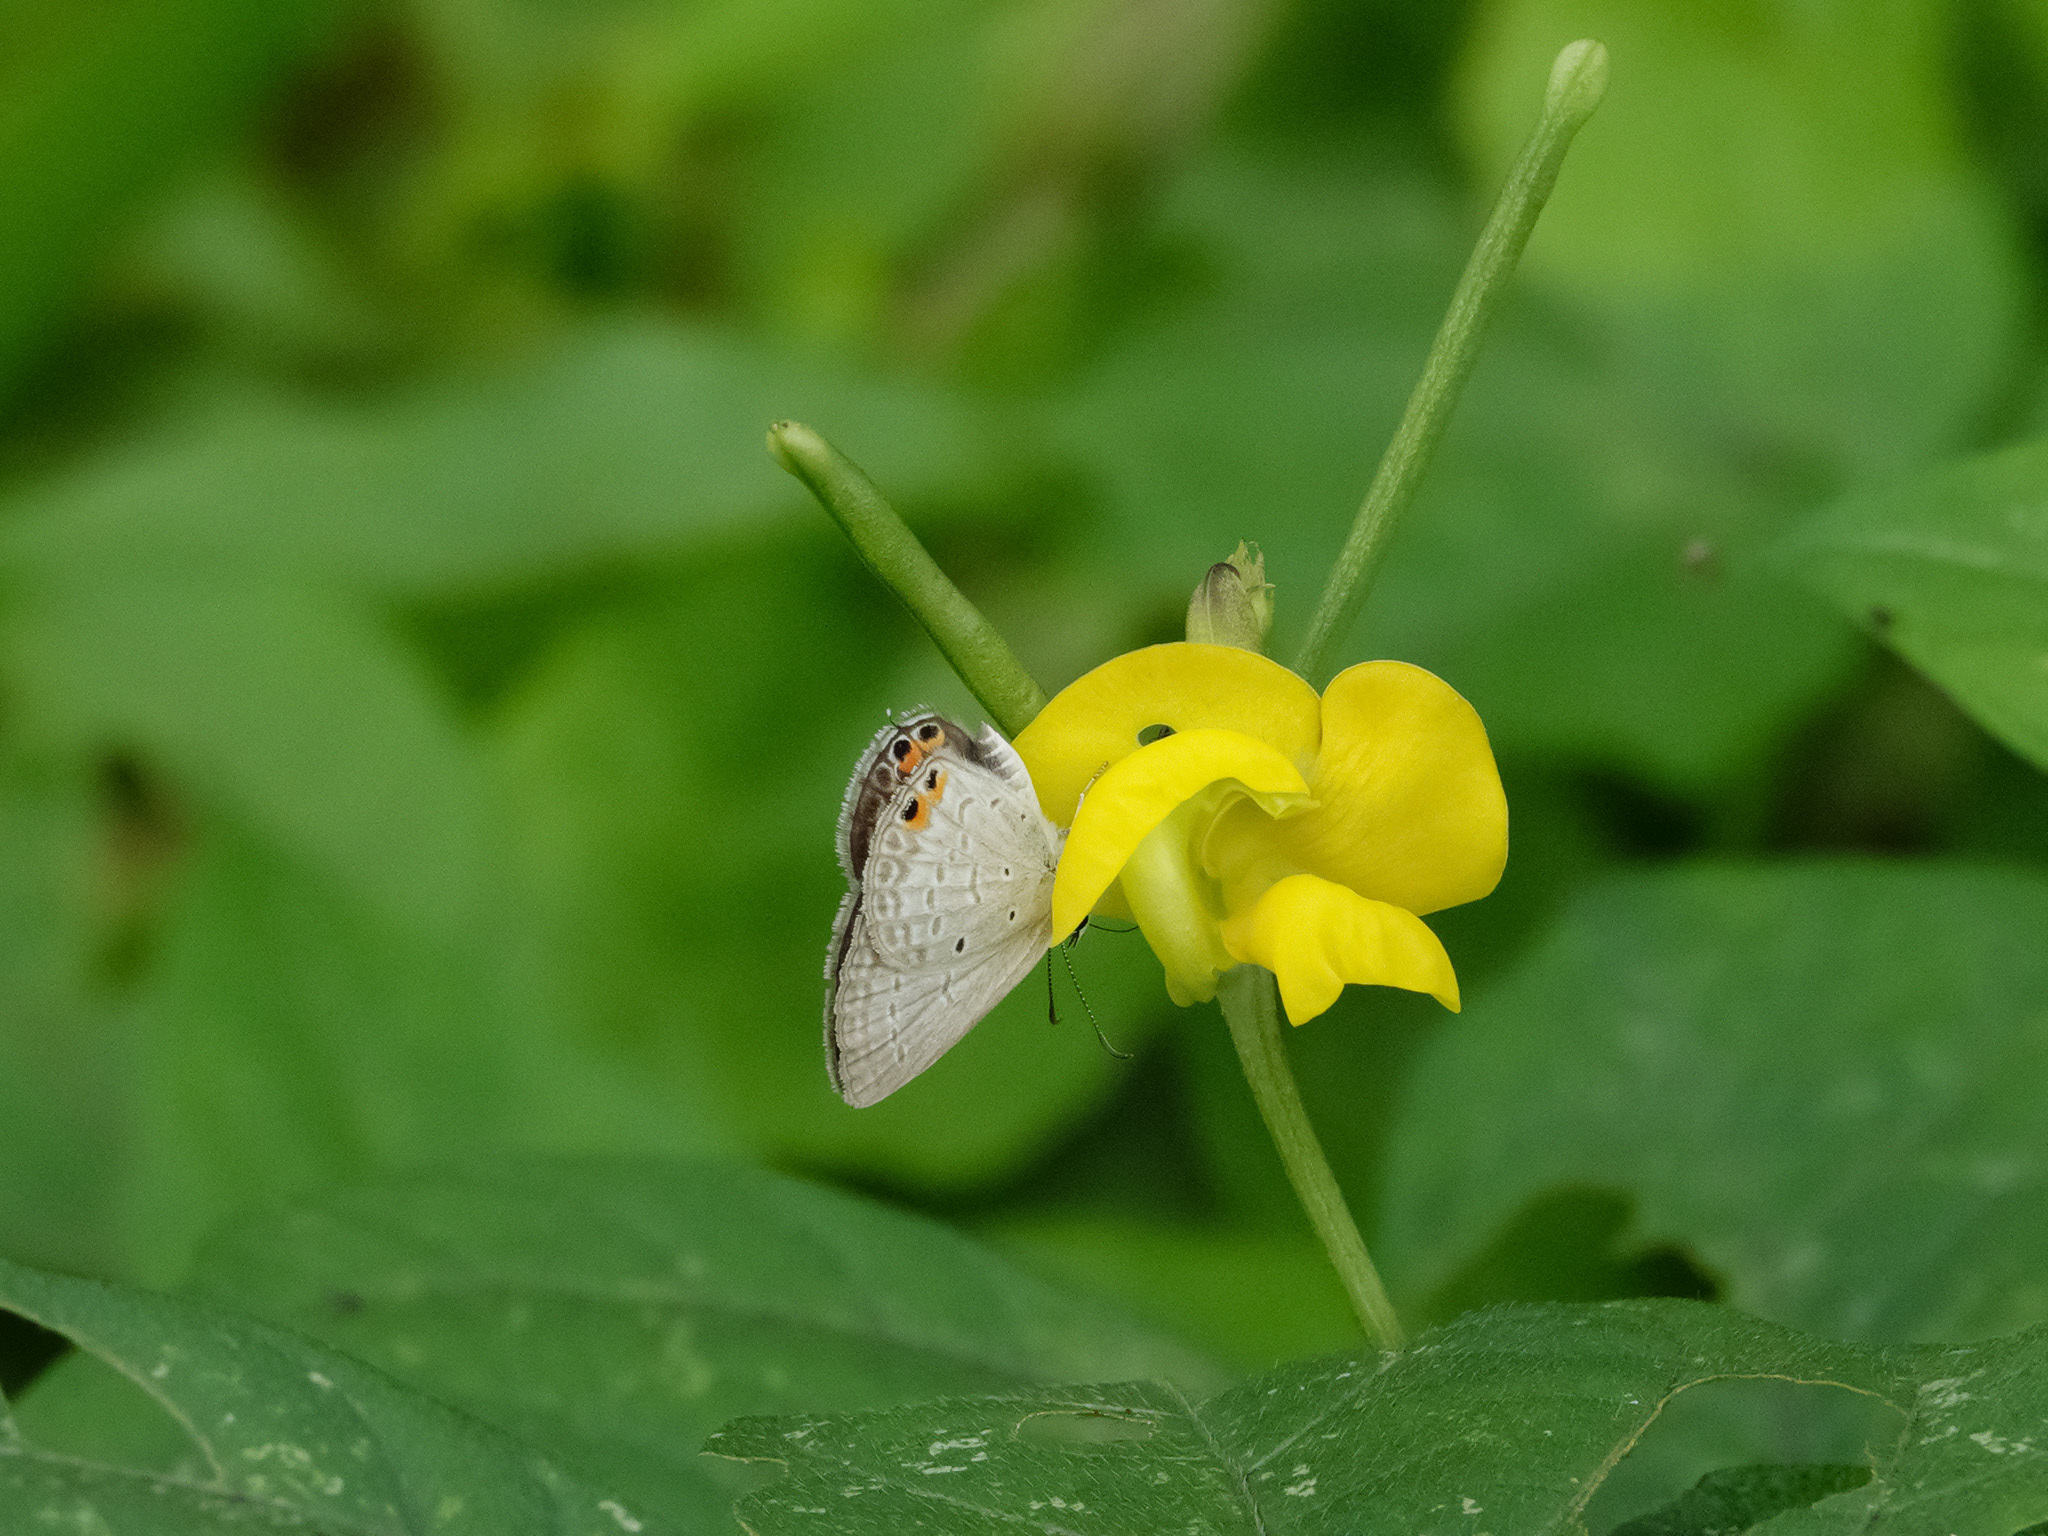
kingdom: Animalia
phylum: Arthropoda
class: Insecta
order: Lepidoptera
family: Lycaenidae
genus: Euchrysops
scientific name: Euchrysops cnejus
